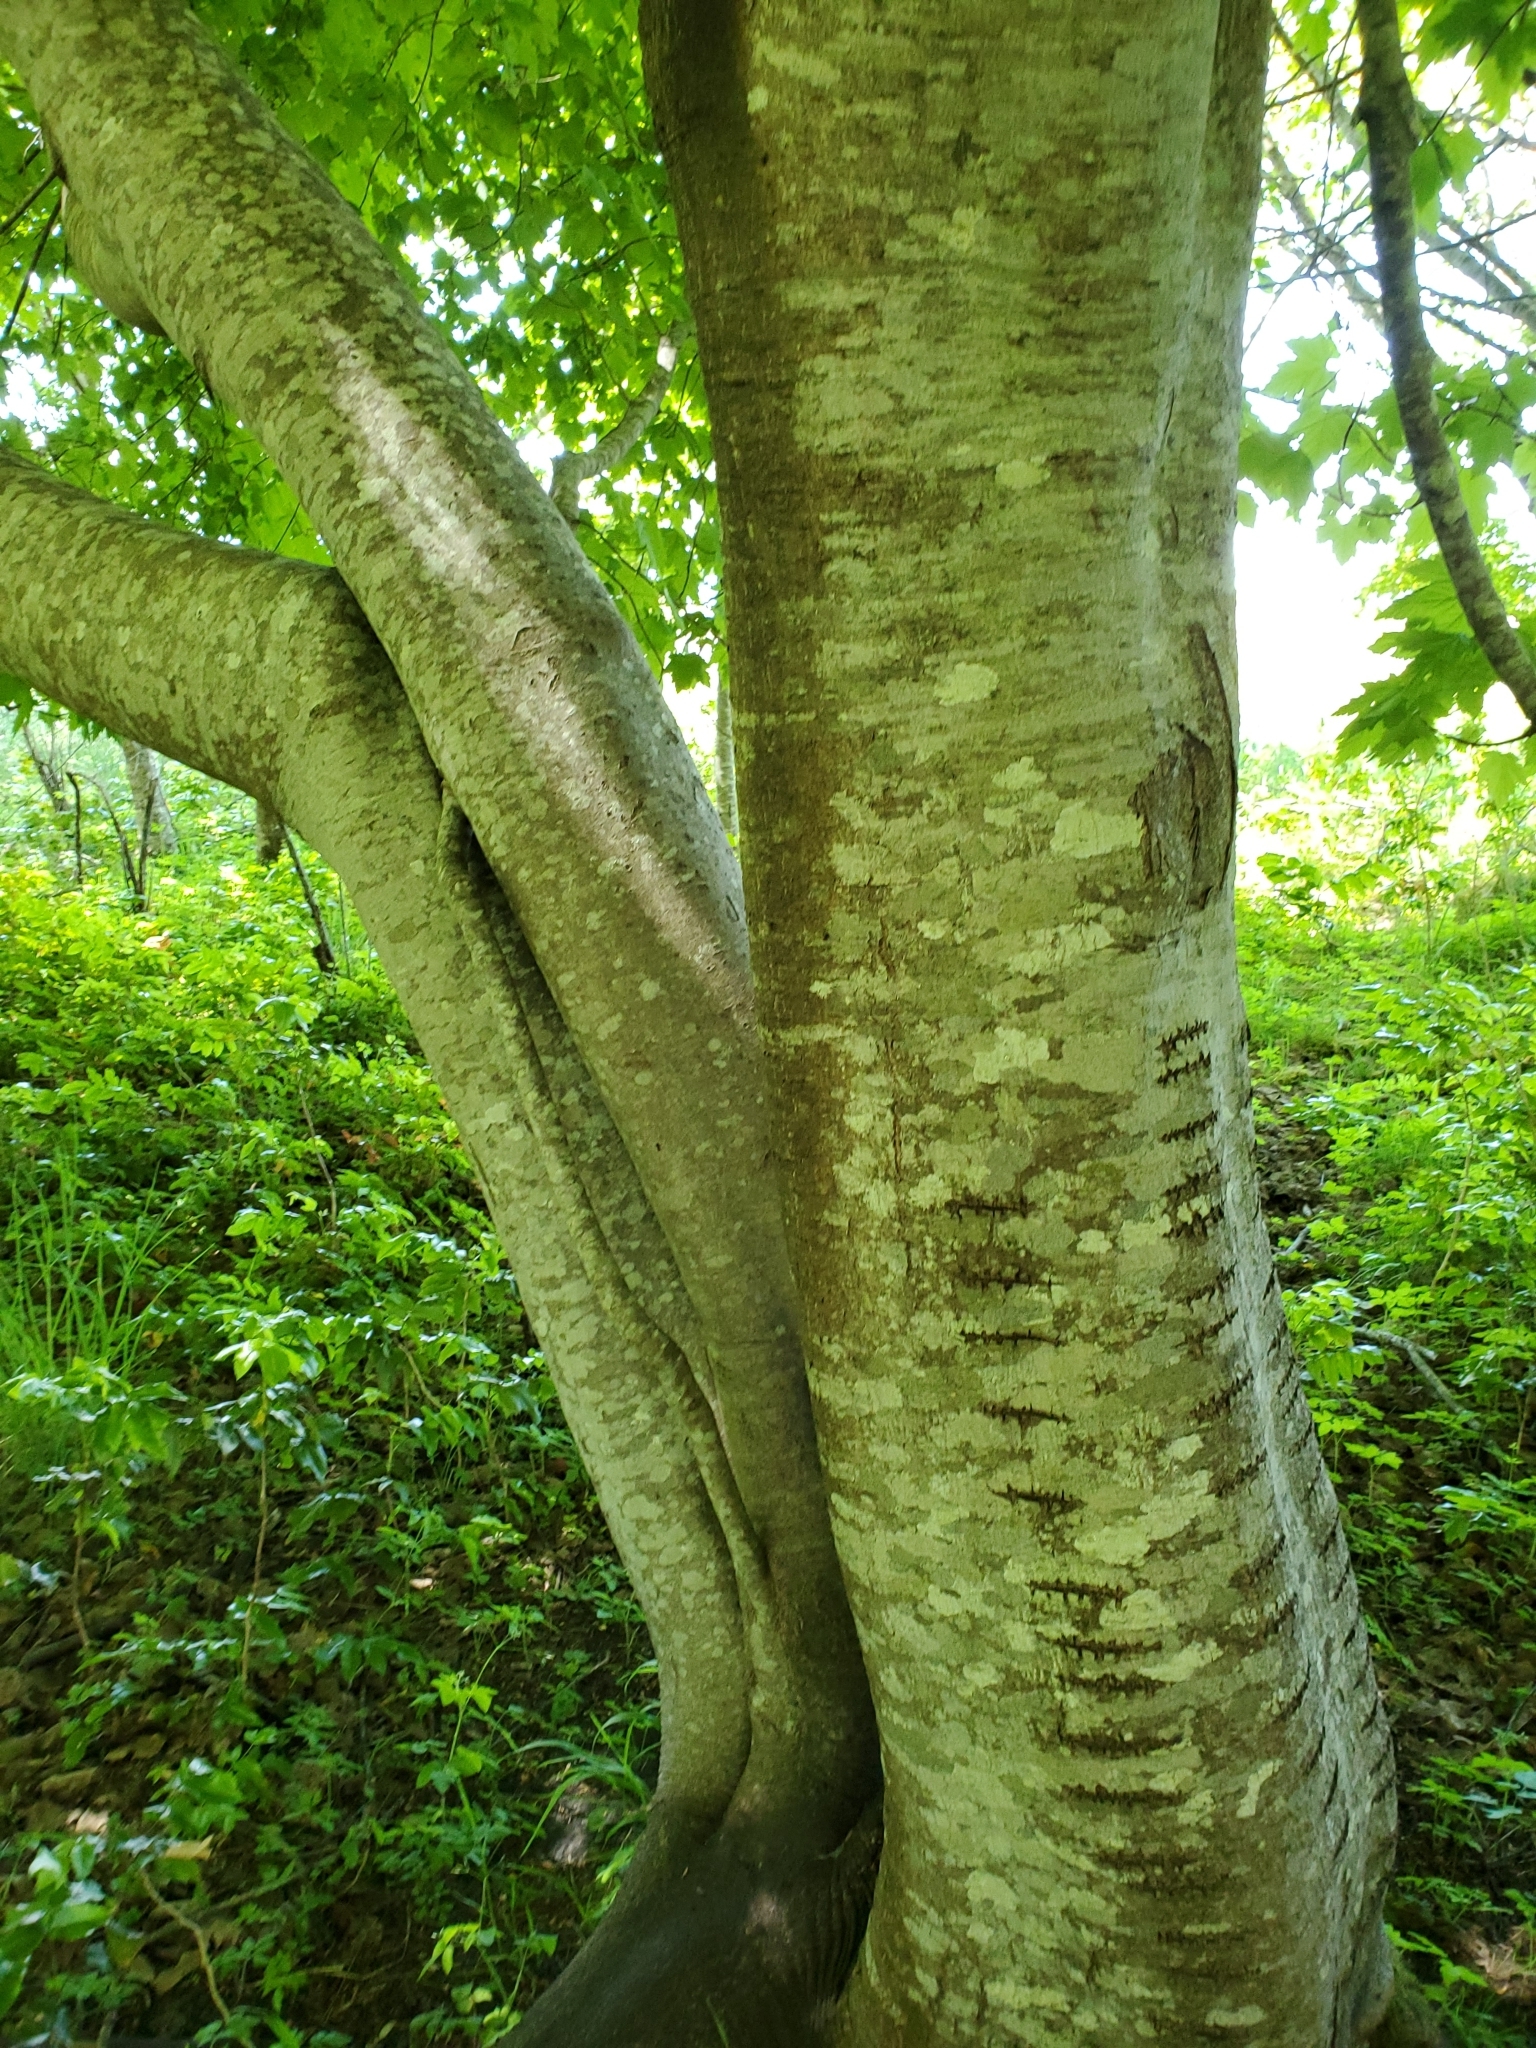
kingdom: Plantae
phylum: Tracheophyta
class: Magnoliopsida
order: Sapindales
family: Sapindaceae
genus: Acer
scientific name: Acer glabrum
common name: Rocky mountain maple
